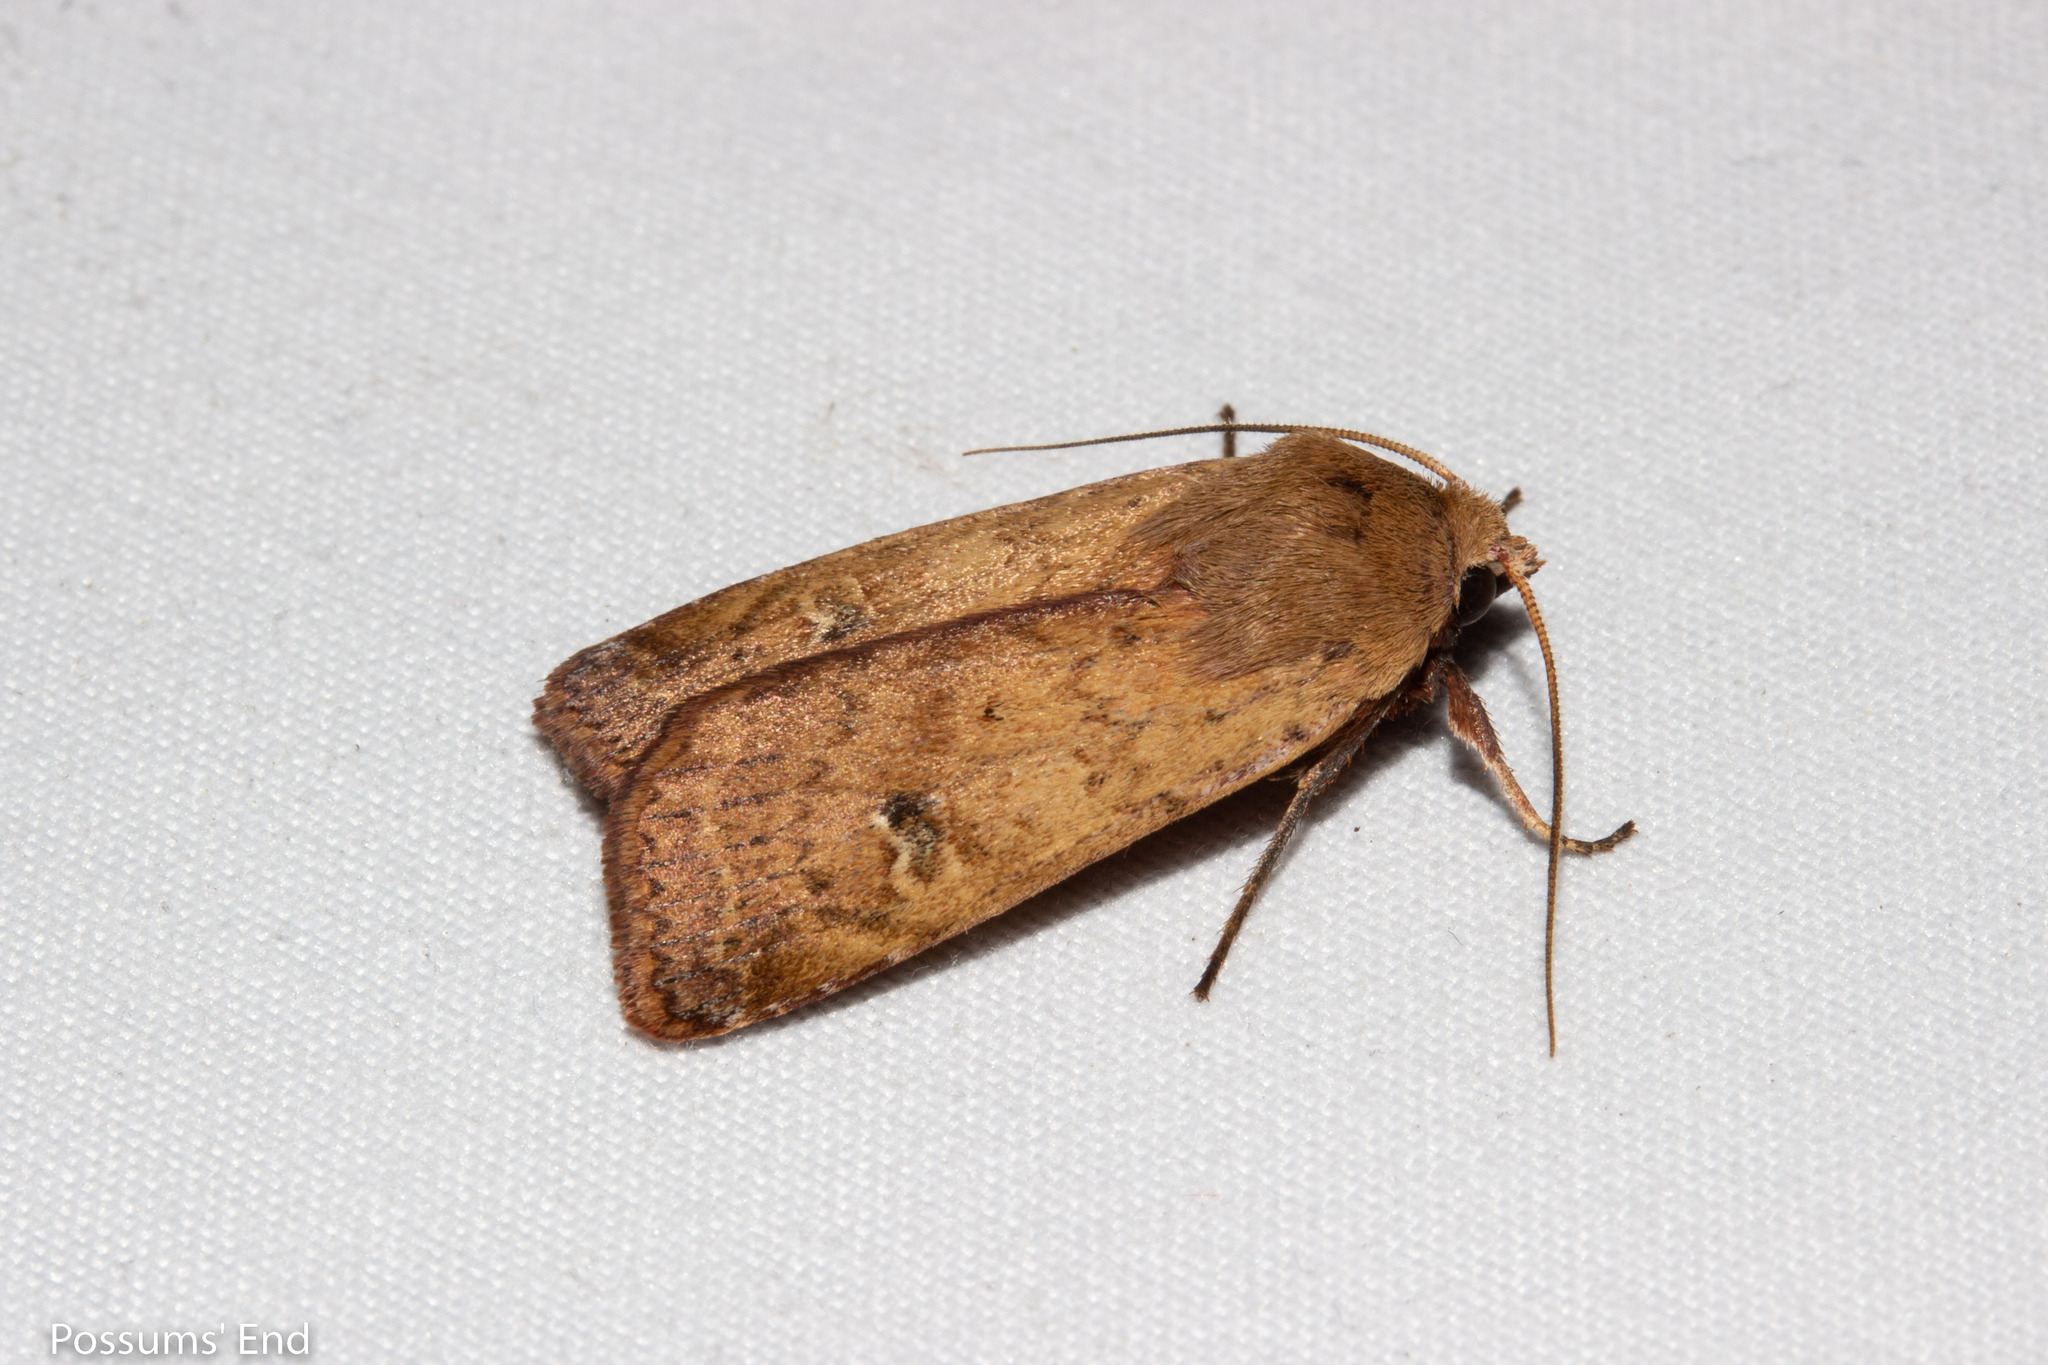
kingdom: Animalia
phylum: Arthropoda
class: Insecta
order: Lepidoptera
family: Noctuidae
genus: Diarsia
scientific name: Diarsia intermixta
